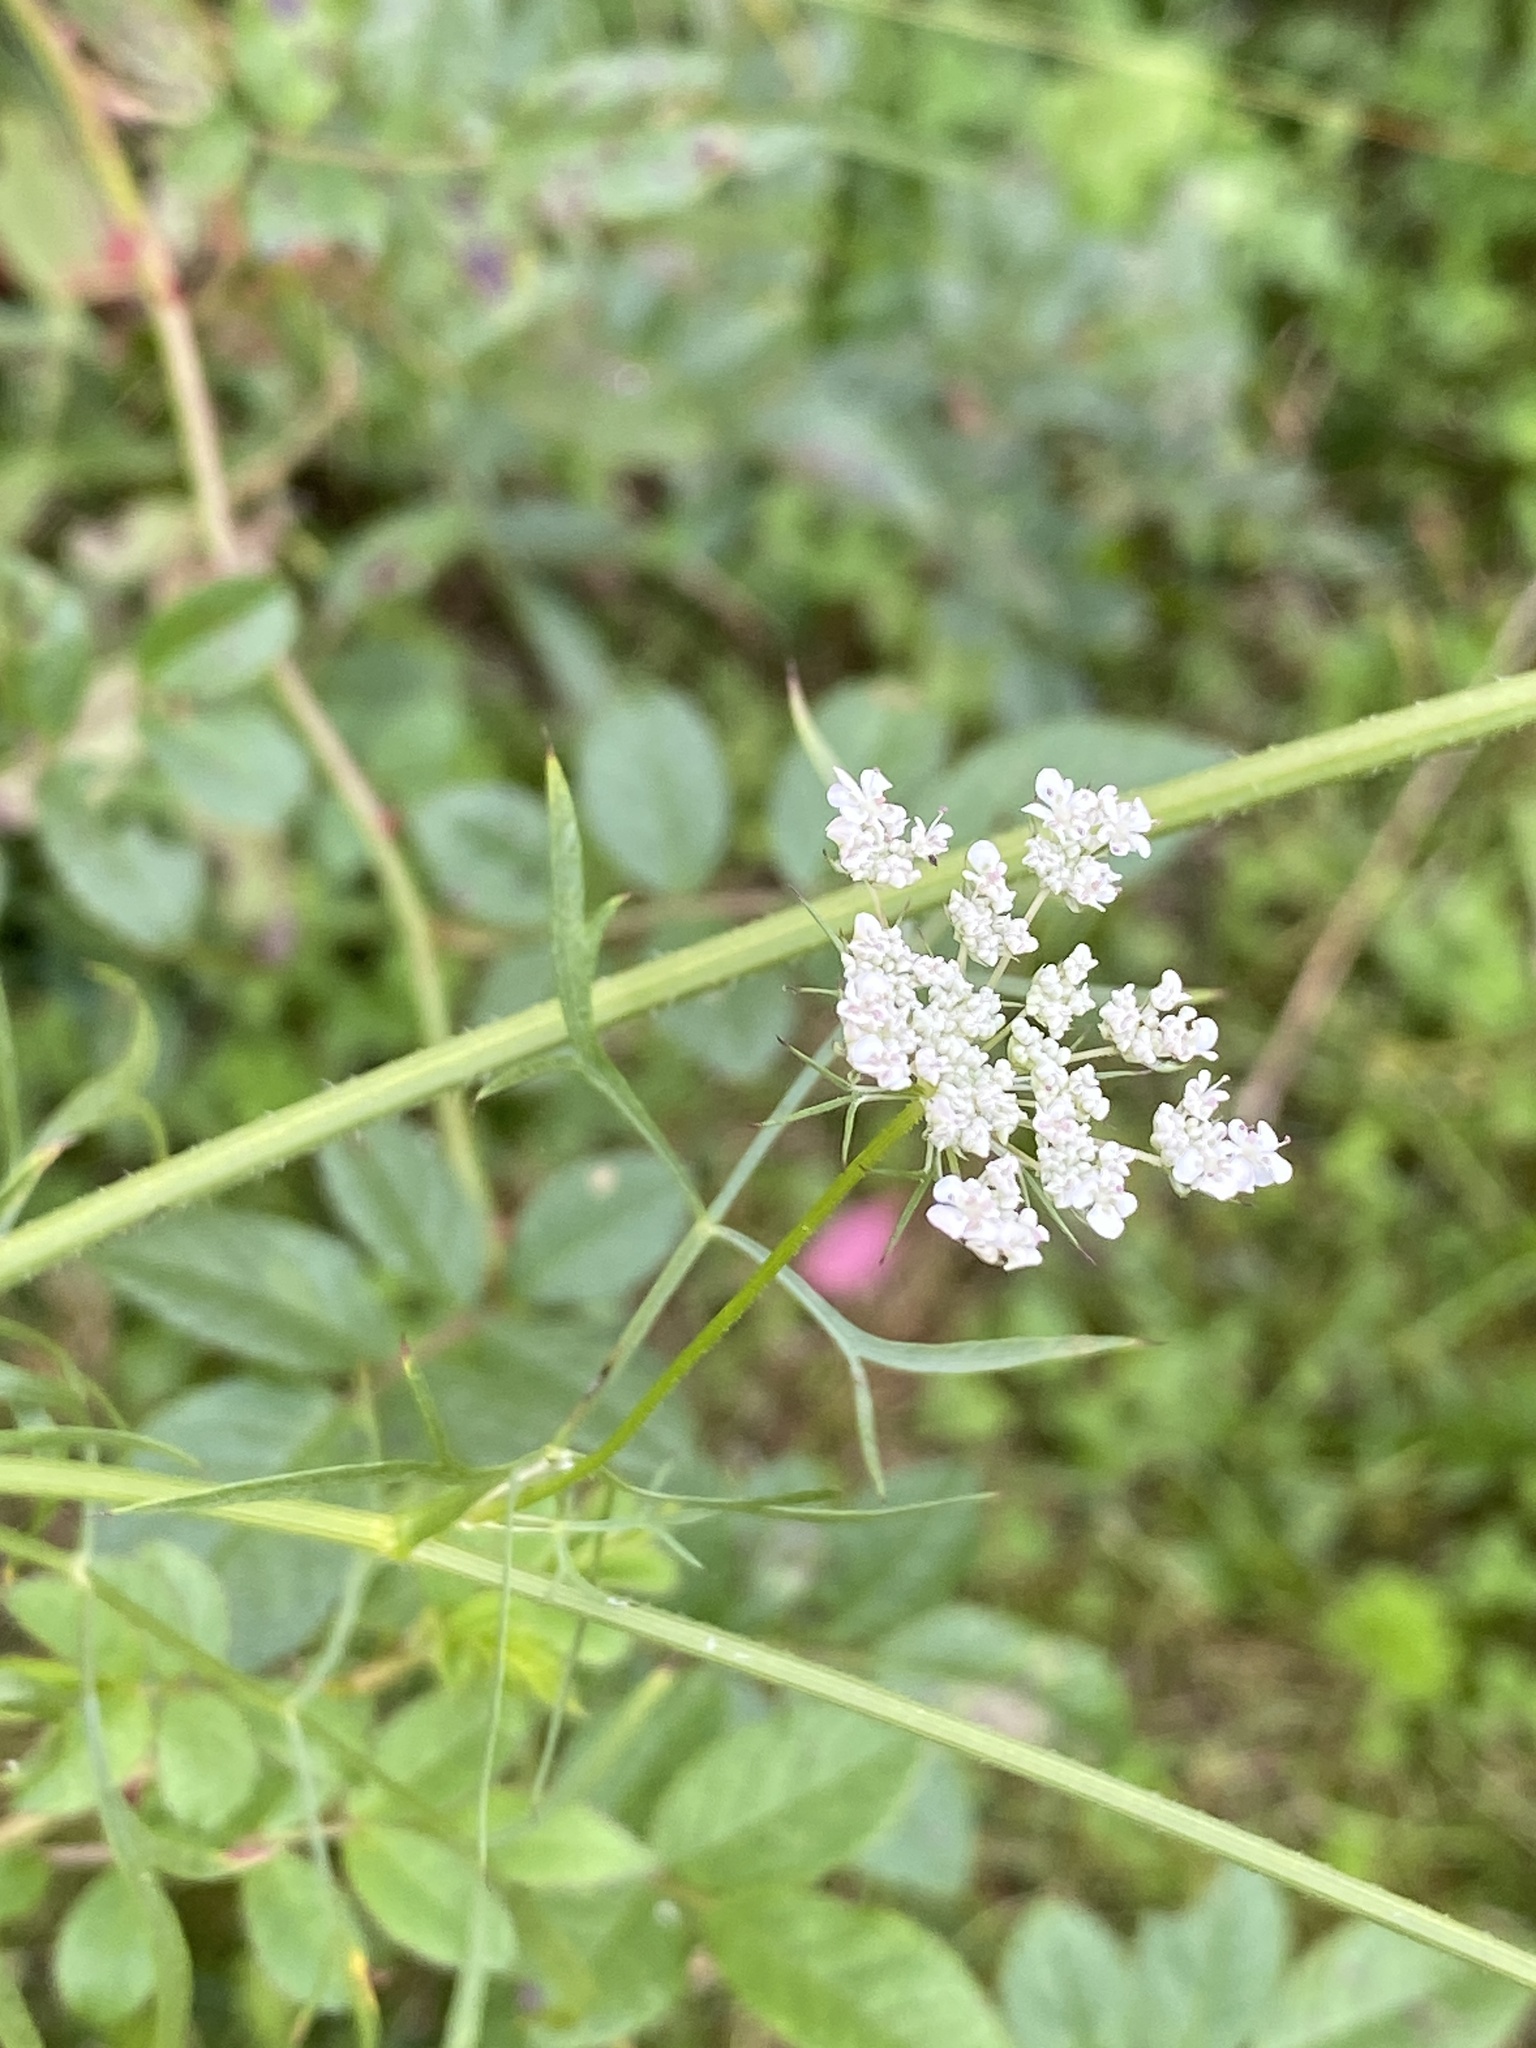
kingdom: Plantae
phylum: Tracheophyta
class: Magnoliopsida
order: Apiales
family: Apiaceae
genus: Daucus
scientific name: Daucus carota
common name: Wild carrot
